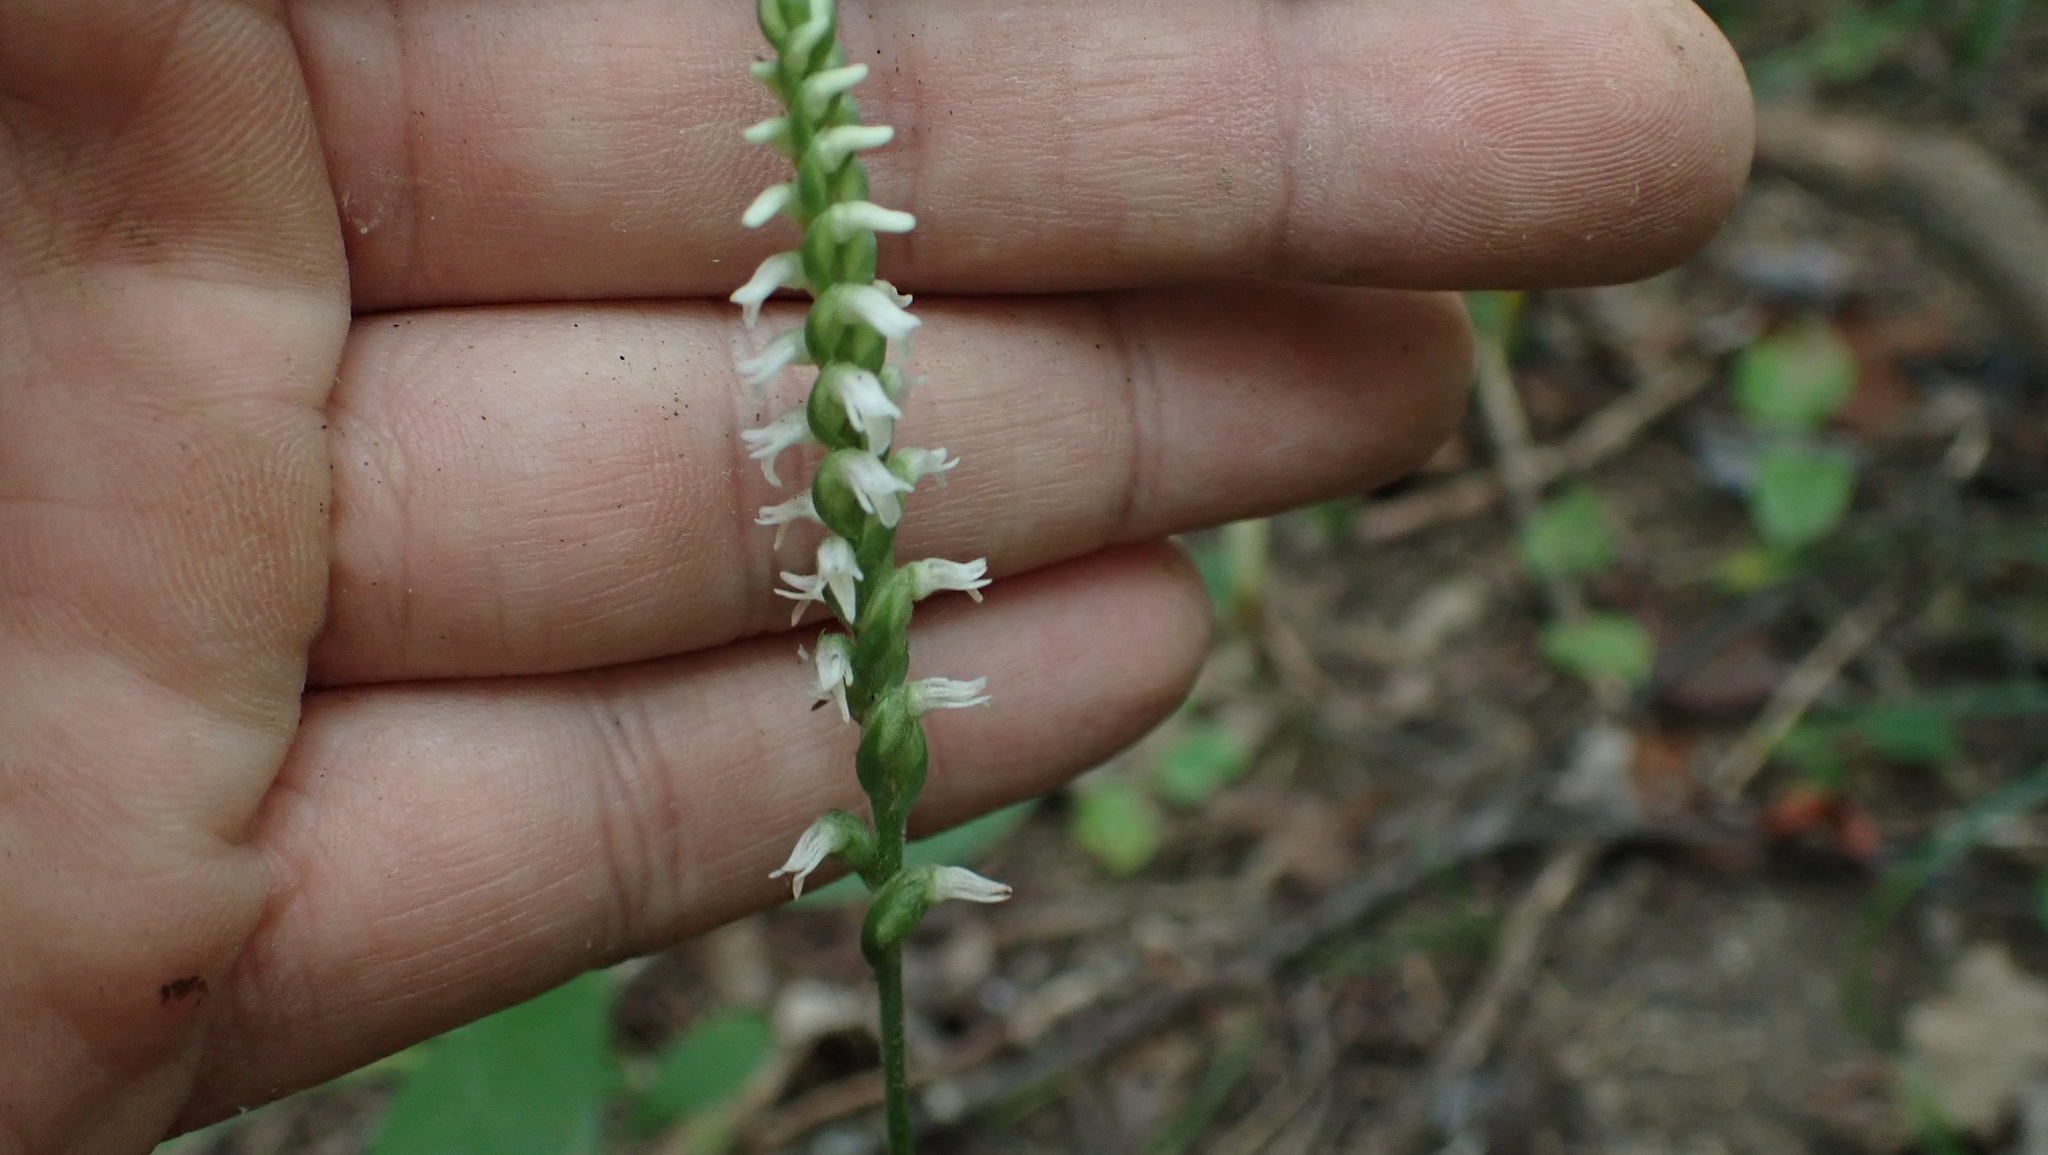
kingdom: Plantae
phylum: Tracheophyta
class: Liliopsida
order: Asparagales
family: Orchidaceae
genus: Spiranthes
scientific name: Spiranthes ovalis
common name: October ladies'-tresses
